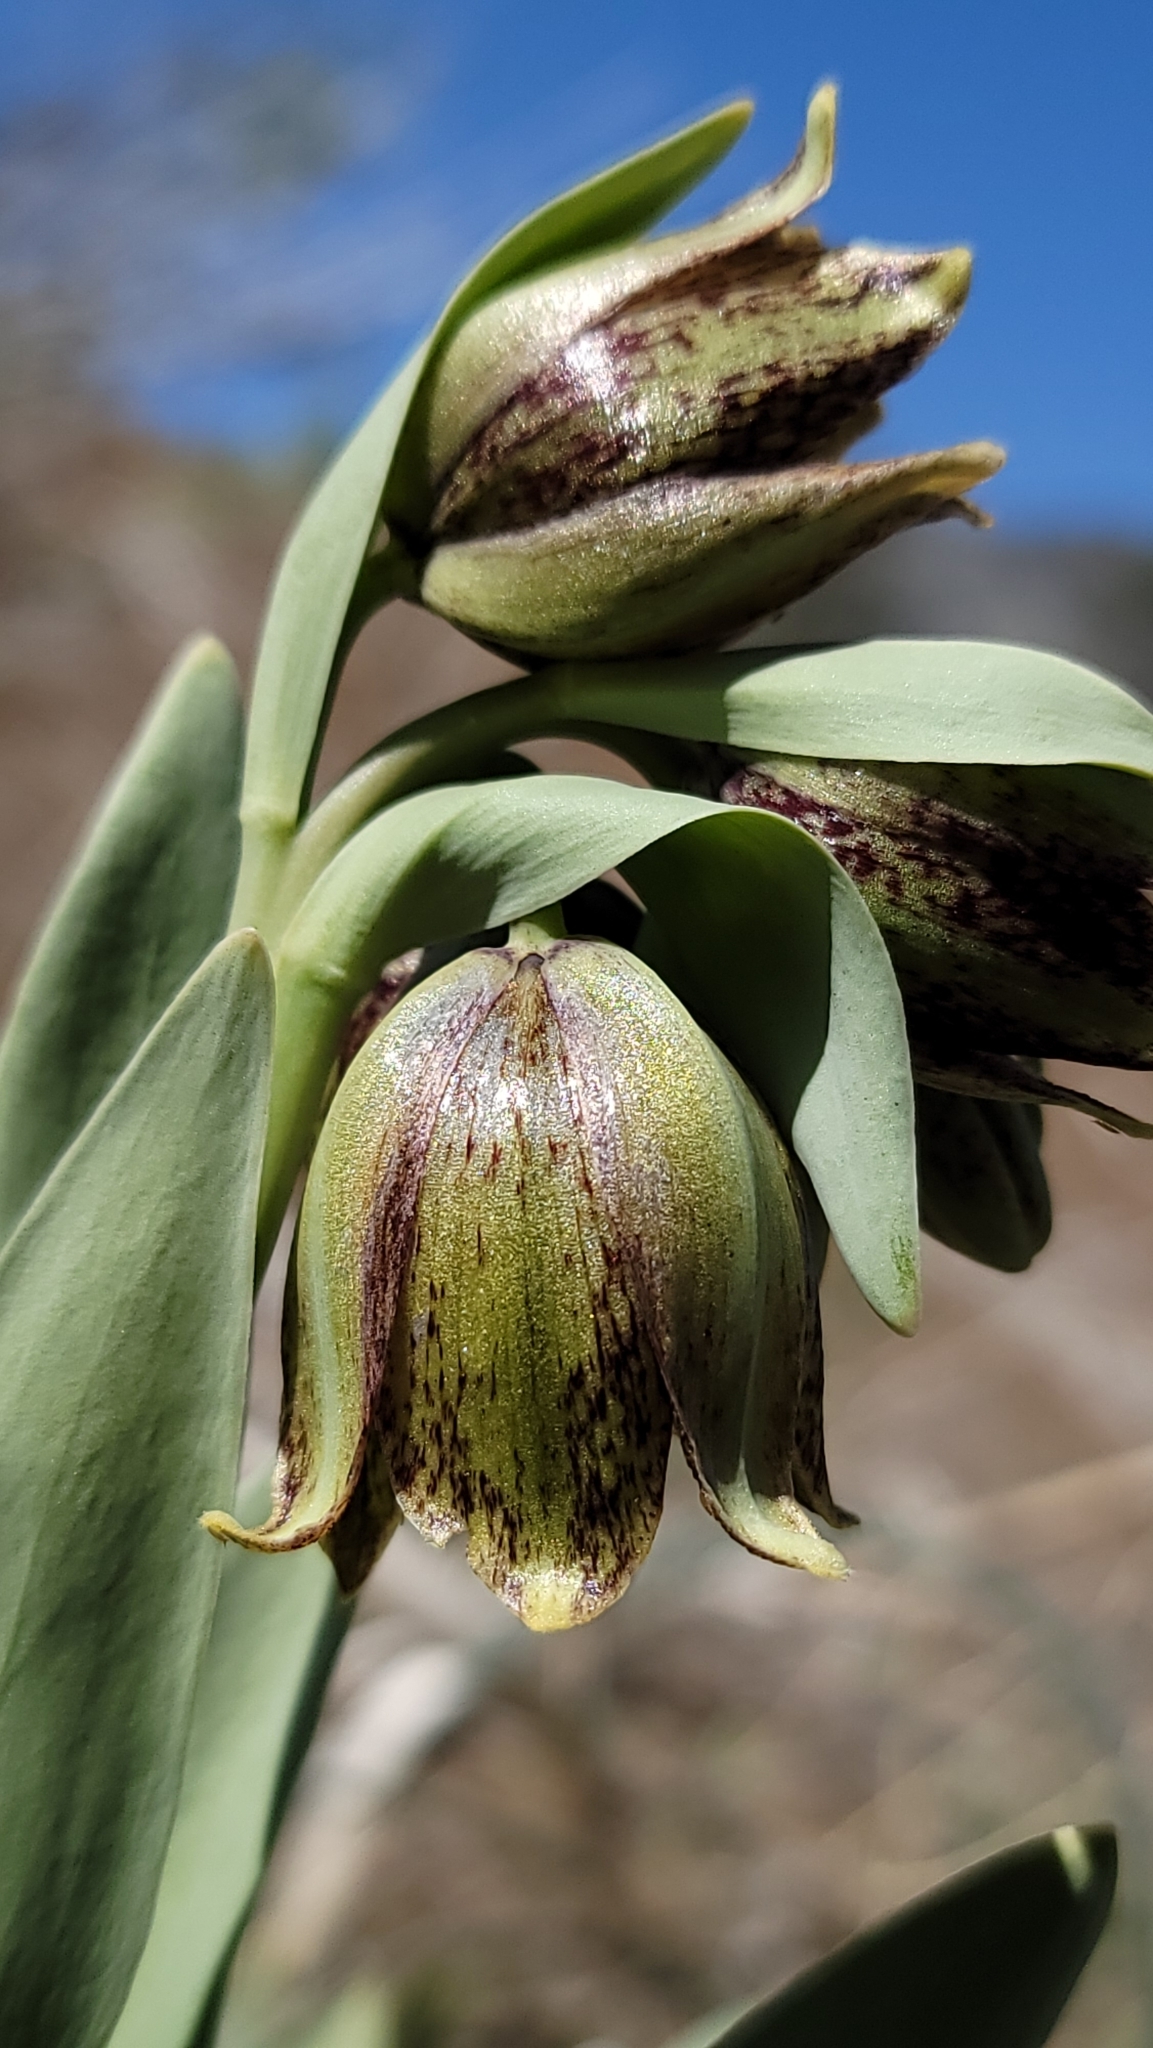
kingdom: Plantae
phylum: Tracheophyta
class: Liliopsida
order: Liliales
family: Liliaceae
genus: Fritillaria
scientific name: Fritillaria agrestis
